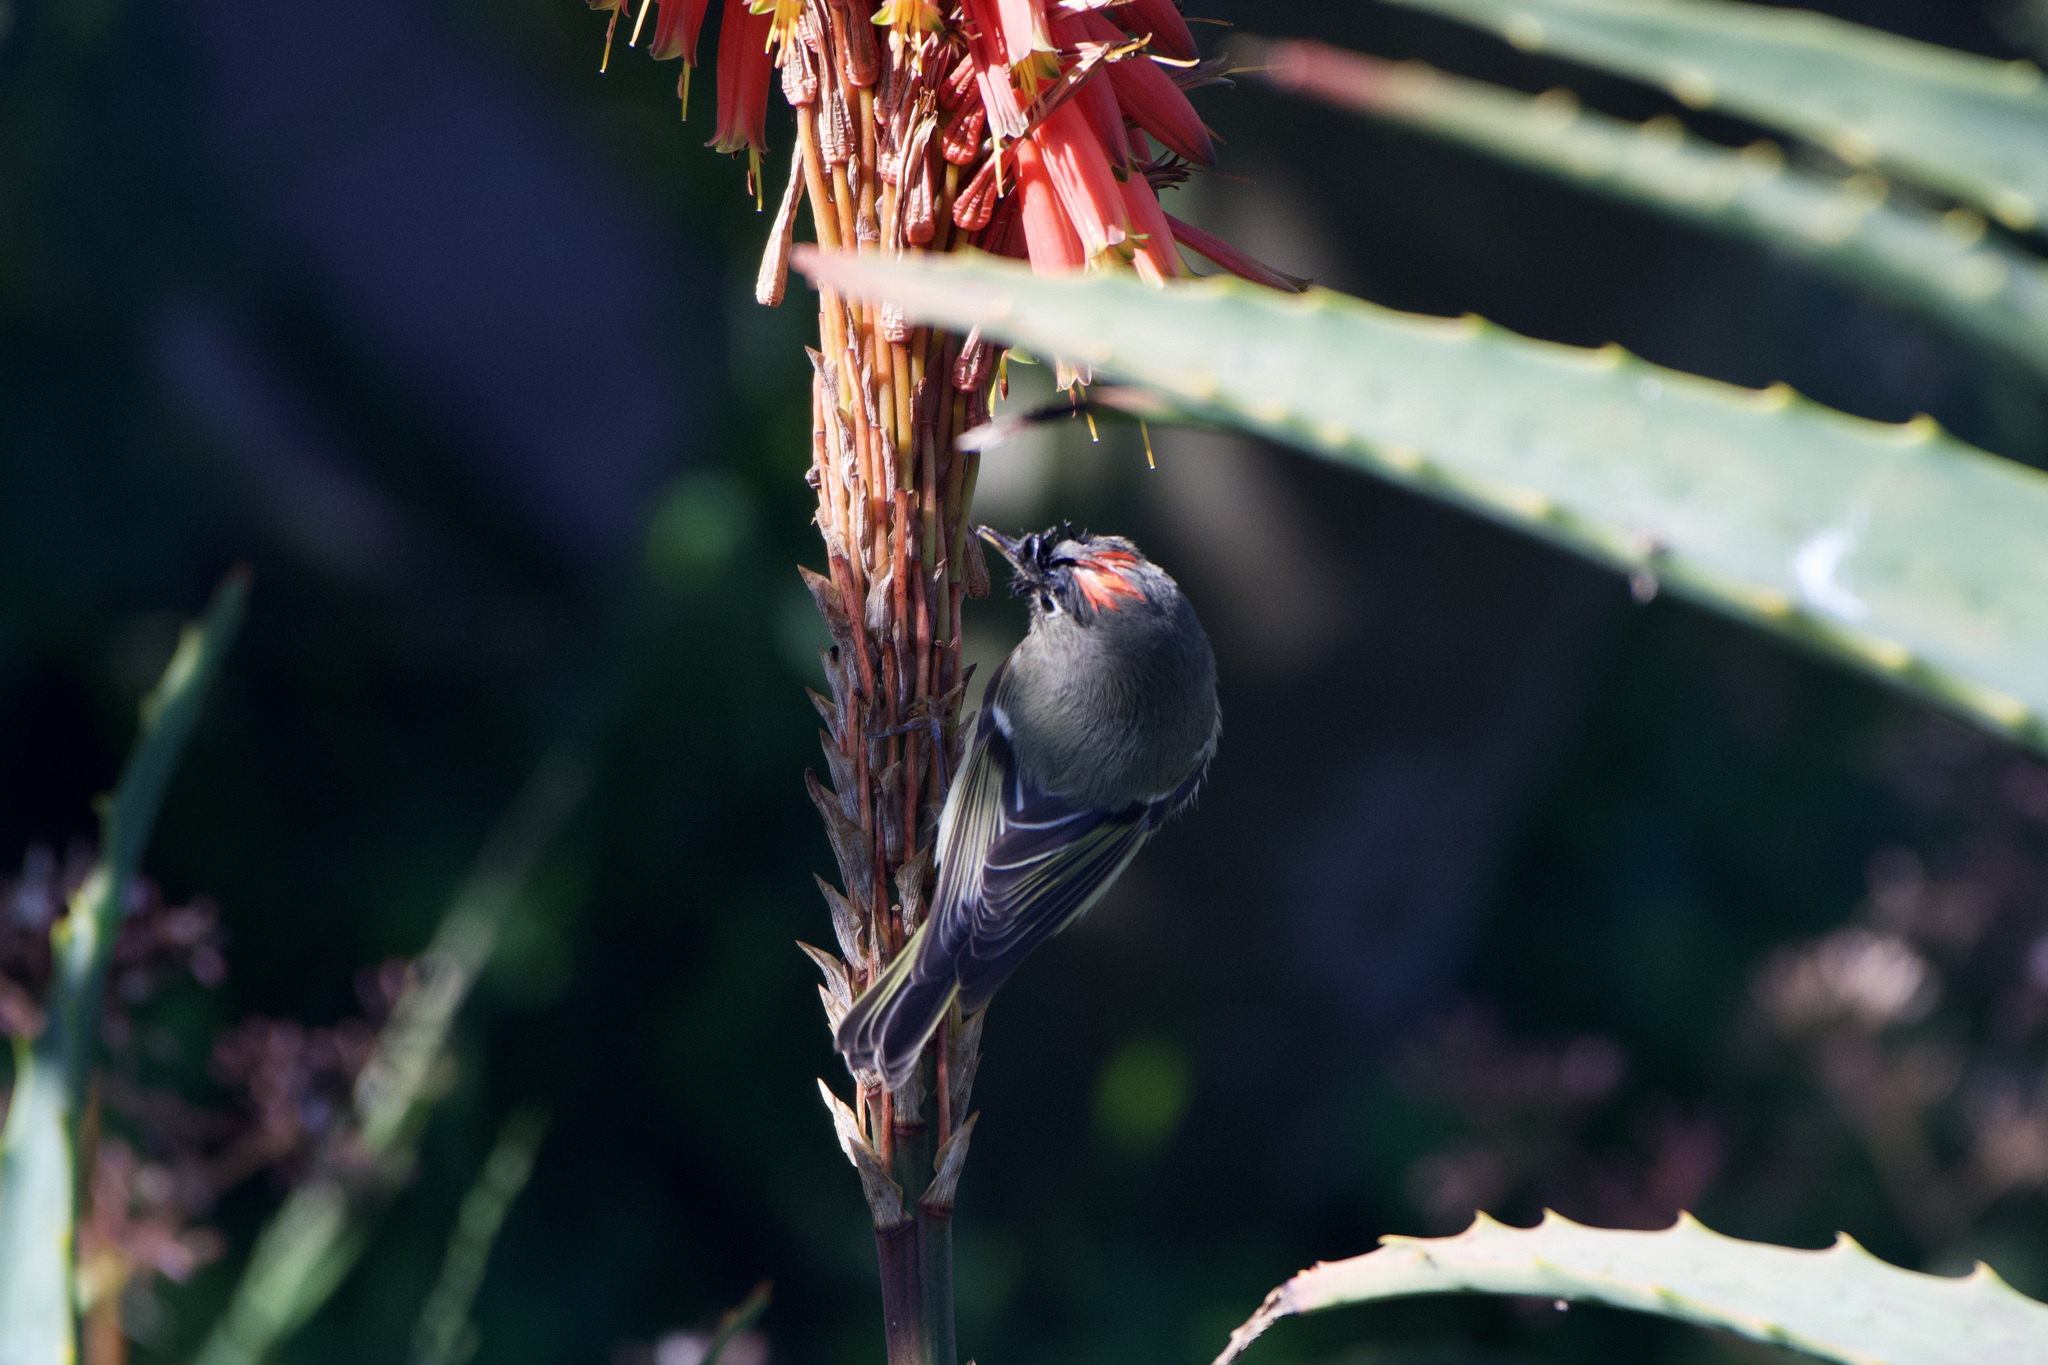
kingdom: Animalia
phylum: Chordata
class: Aves
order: Passeriformes
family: Regulidae
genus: Regulus
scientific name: Regulus calendula
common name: Ruby-crowned kinglet
